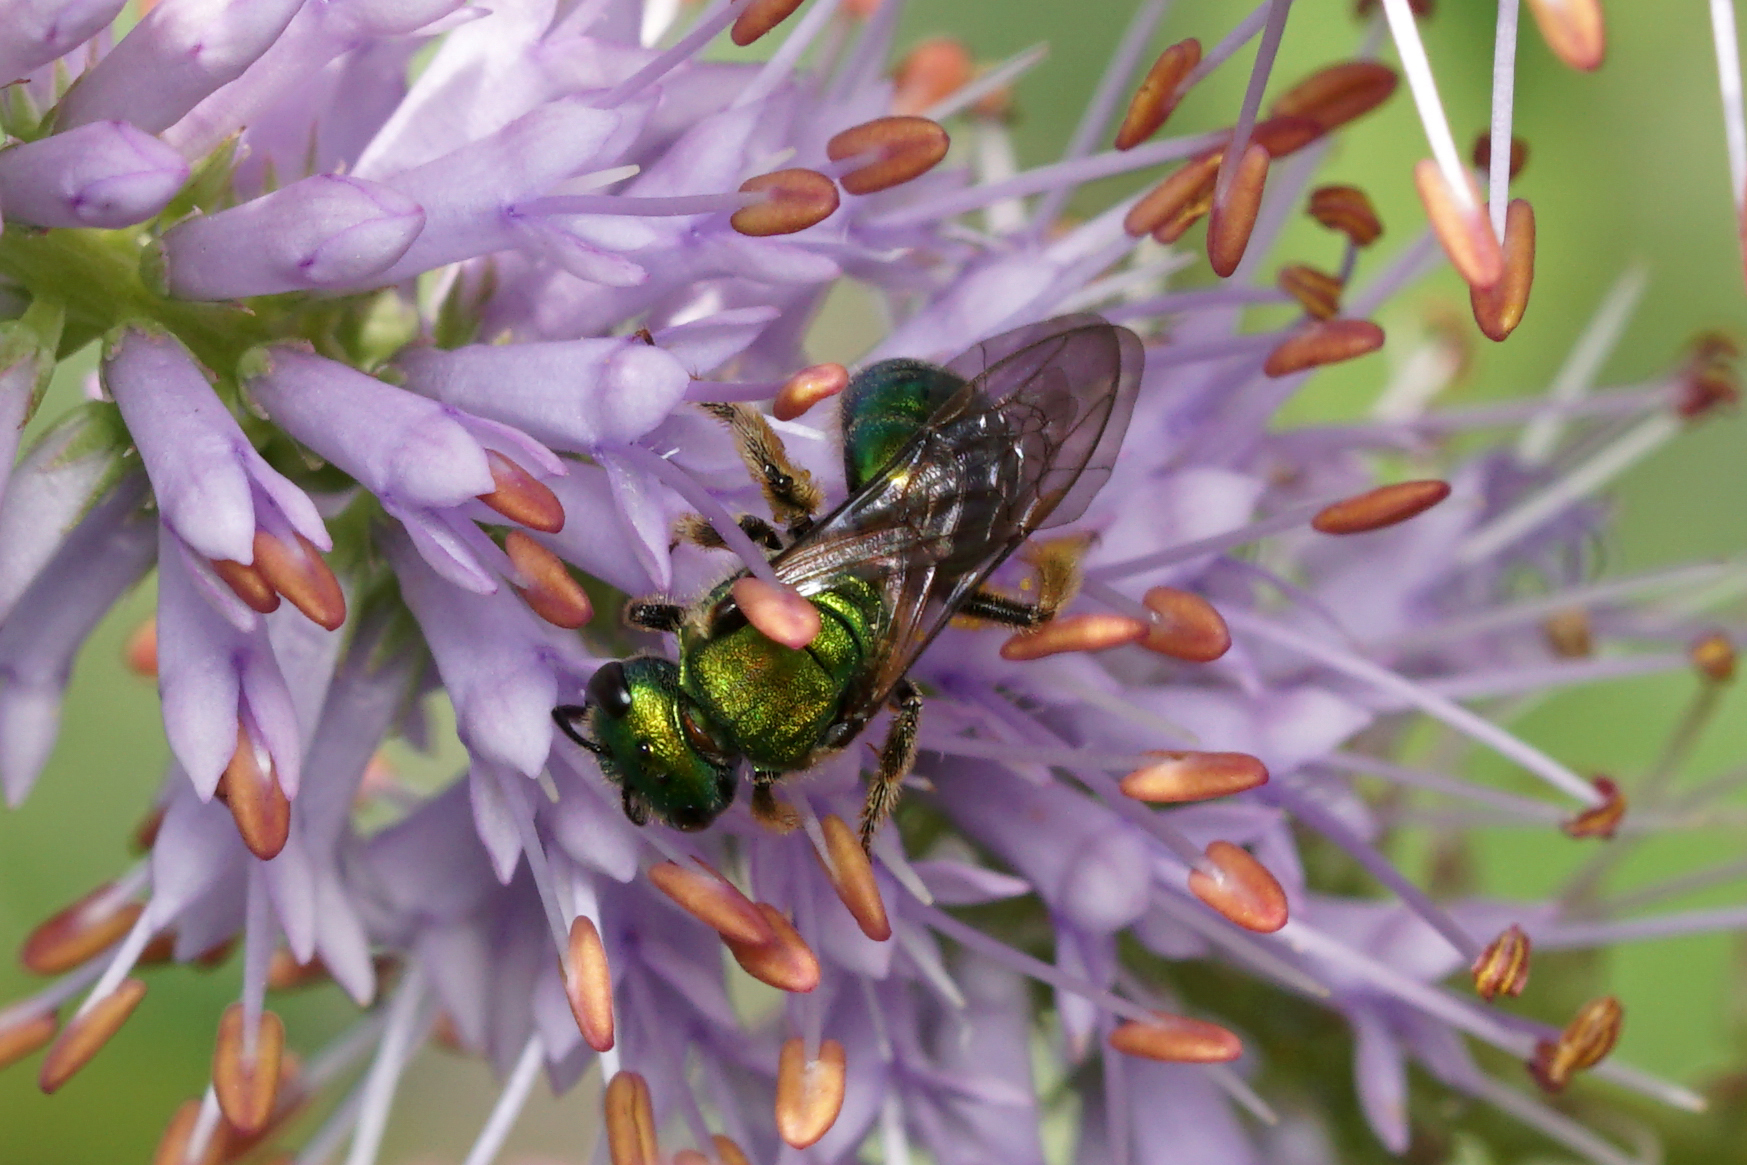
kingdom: Animalia
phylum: Arthropoda
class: Insecta
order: Hymenoptera
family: Halictidae
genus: Augochlora
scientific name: Augochlora pura
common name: Pure green sweat bee
